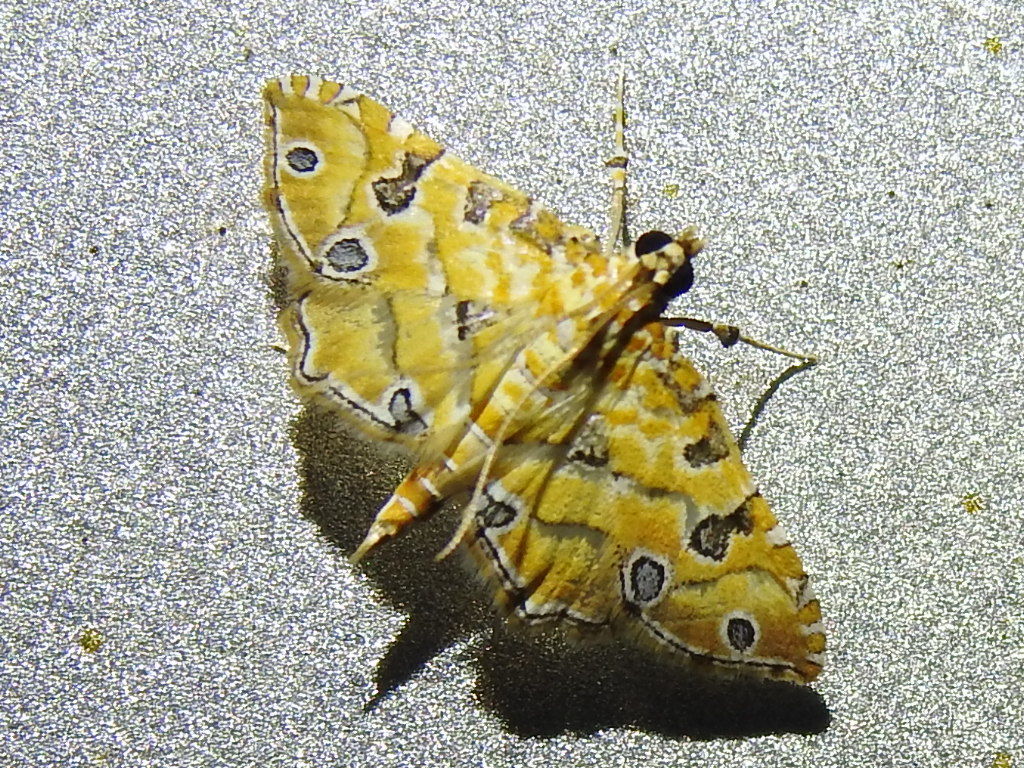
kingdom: Animalia
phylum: Arthropoda
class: Insecta
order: Lepidoptera
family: Crambidae
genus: Ommatospila
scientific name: Ommatospila narcaeusalis
